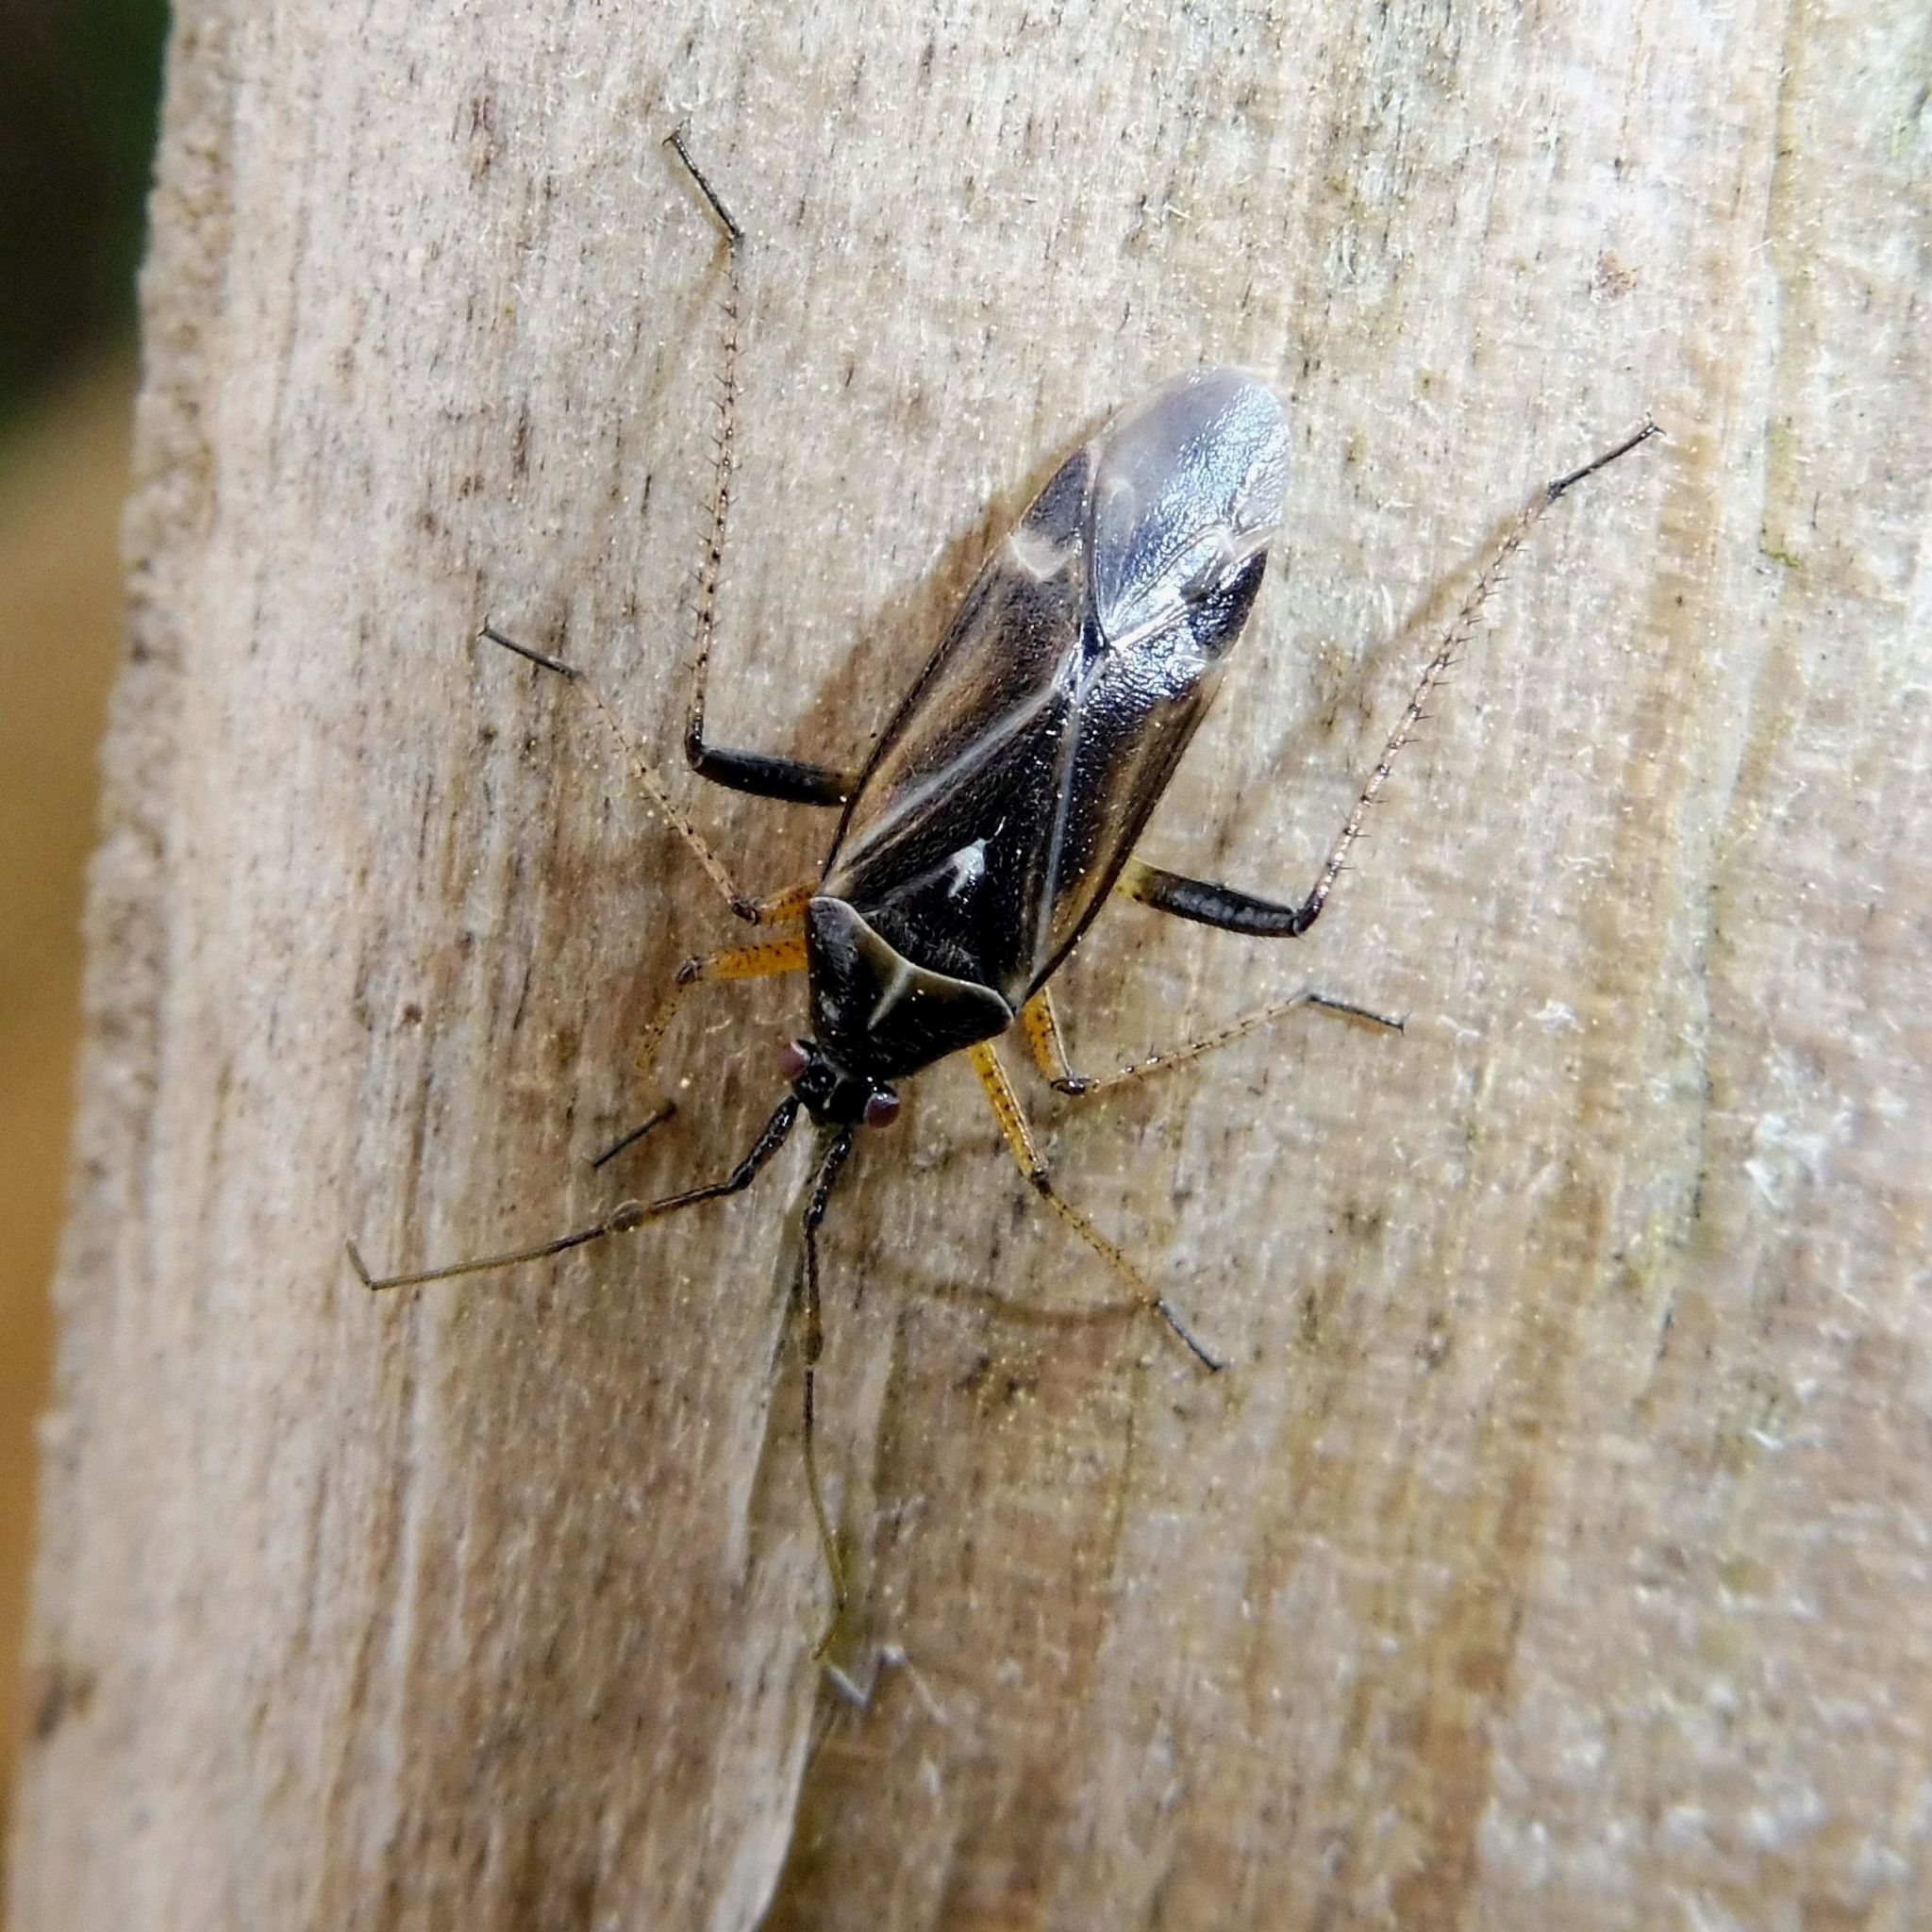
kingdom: Animalia
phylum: Arthropoda
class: Insecta
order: Hemiptera
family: Miridae
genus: Harpocera
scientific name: Harpocera thoracica
